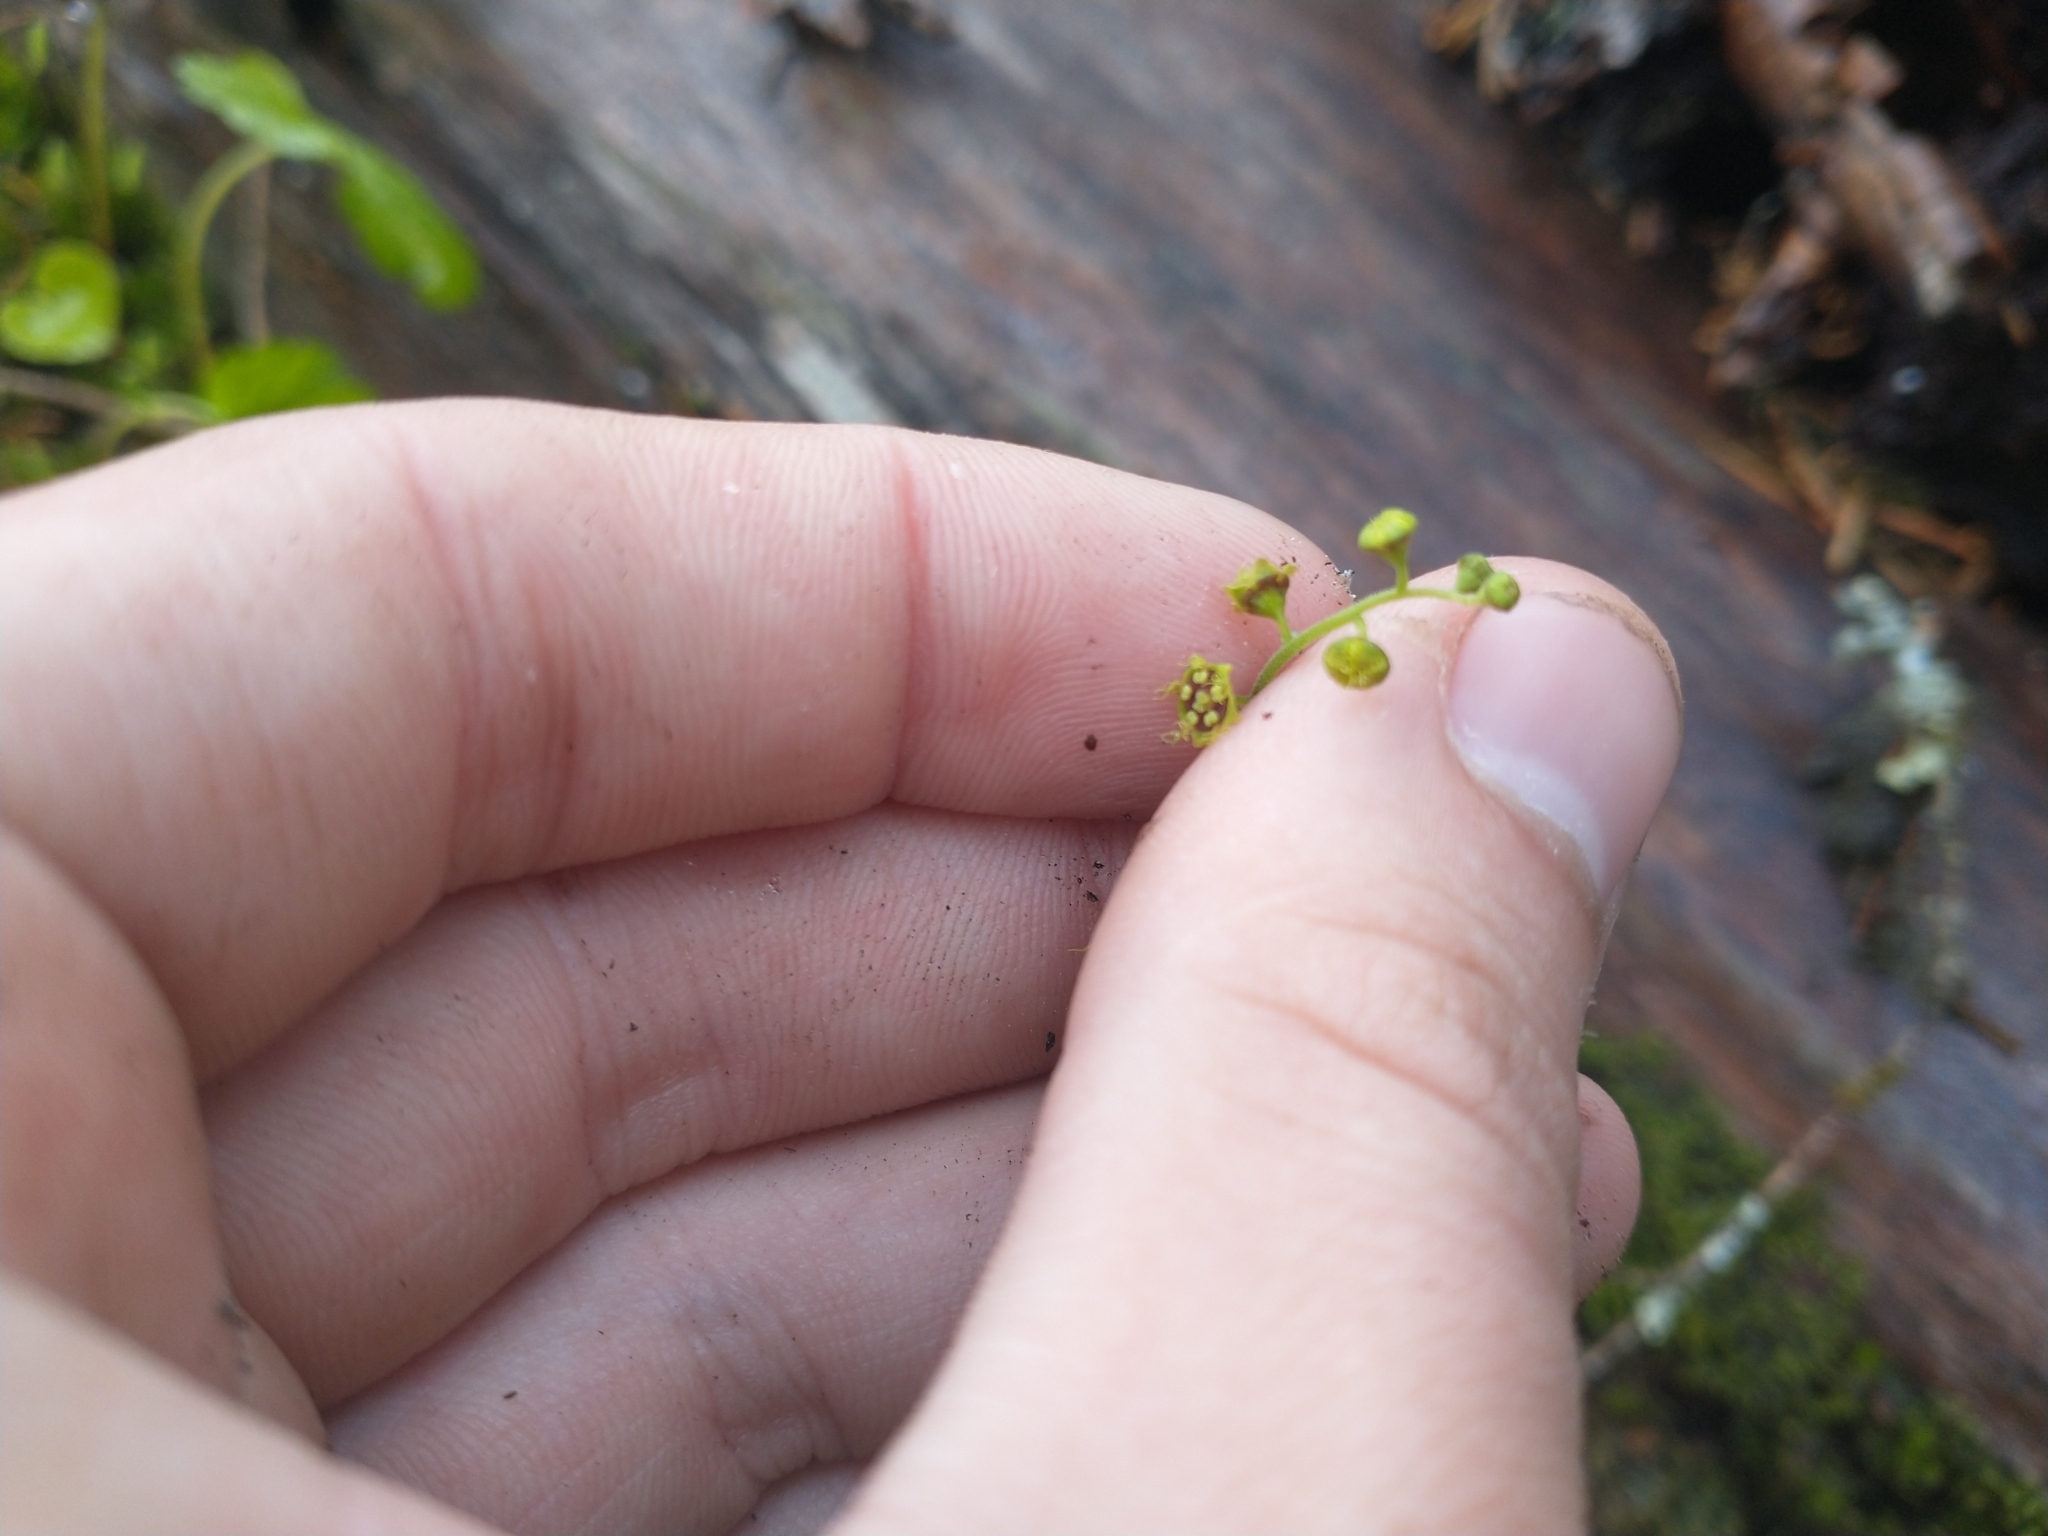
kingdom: Plantae
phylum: Tracheophyta
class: Magnoliopsida
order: Saxifragales
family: Saxifragaceae
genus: Pectiantia
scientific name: Pectiantia pentandra
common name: Alpine bishop's-cap
